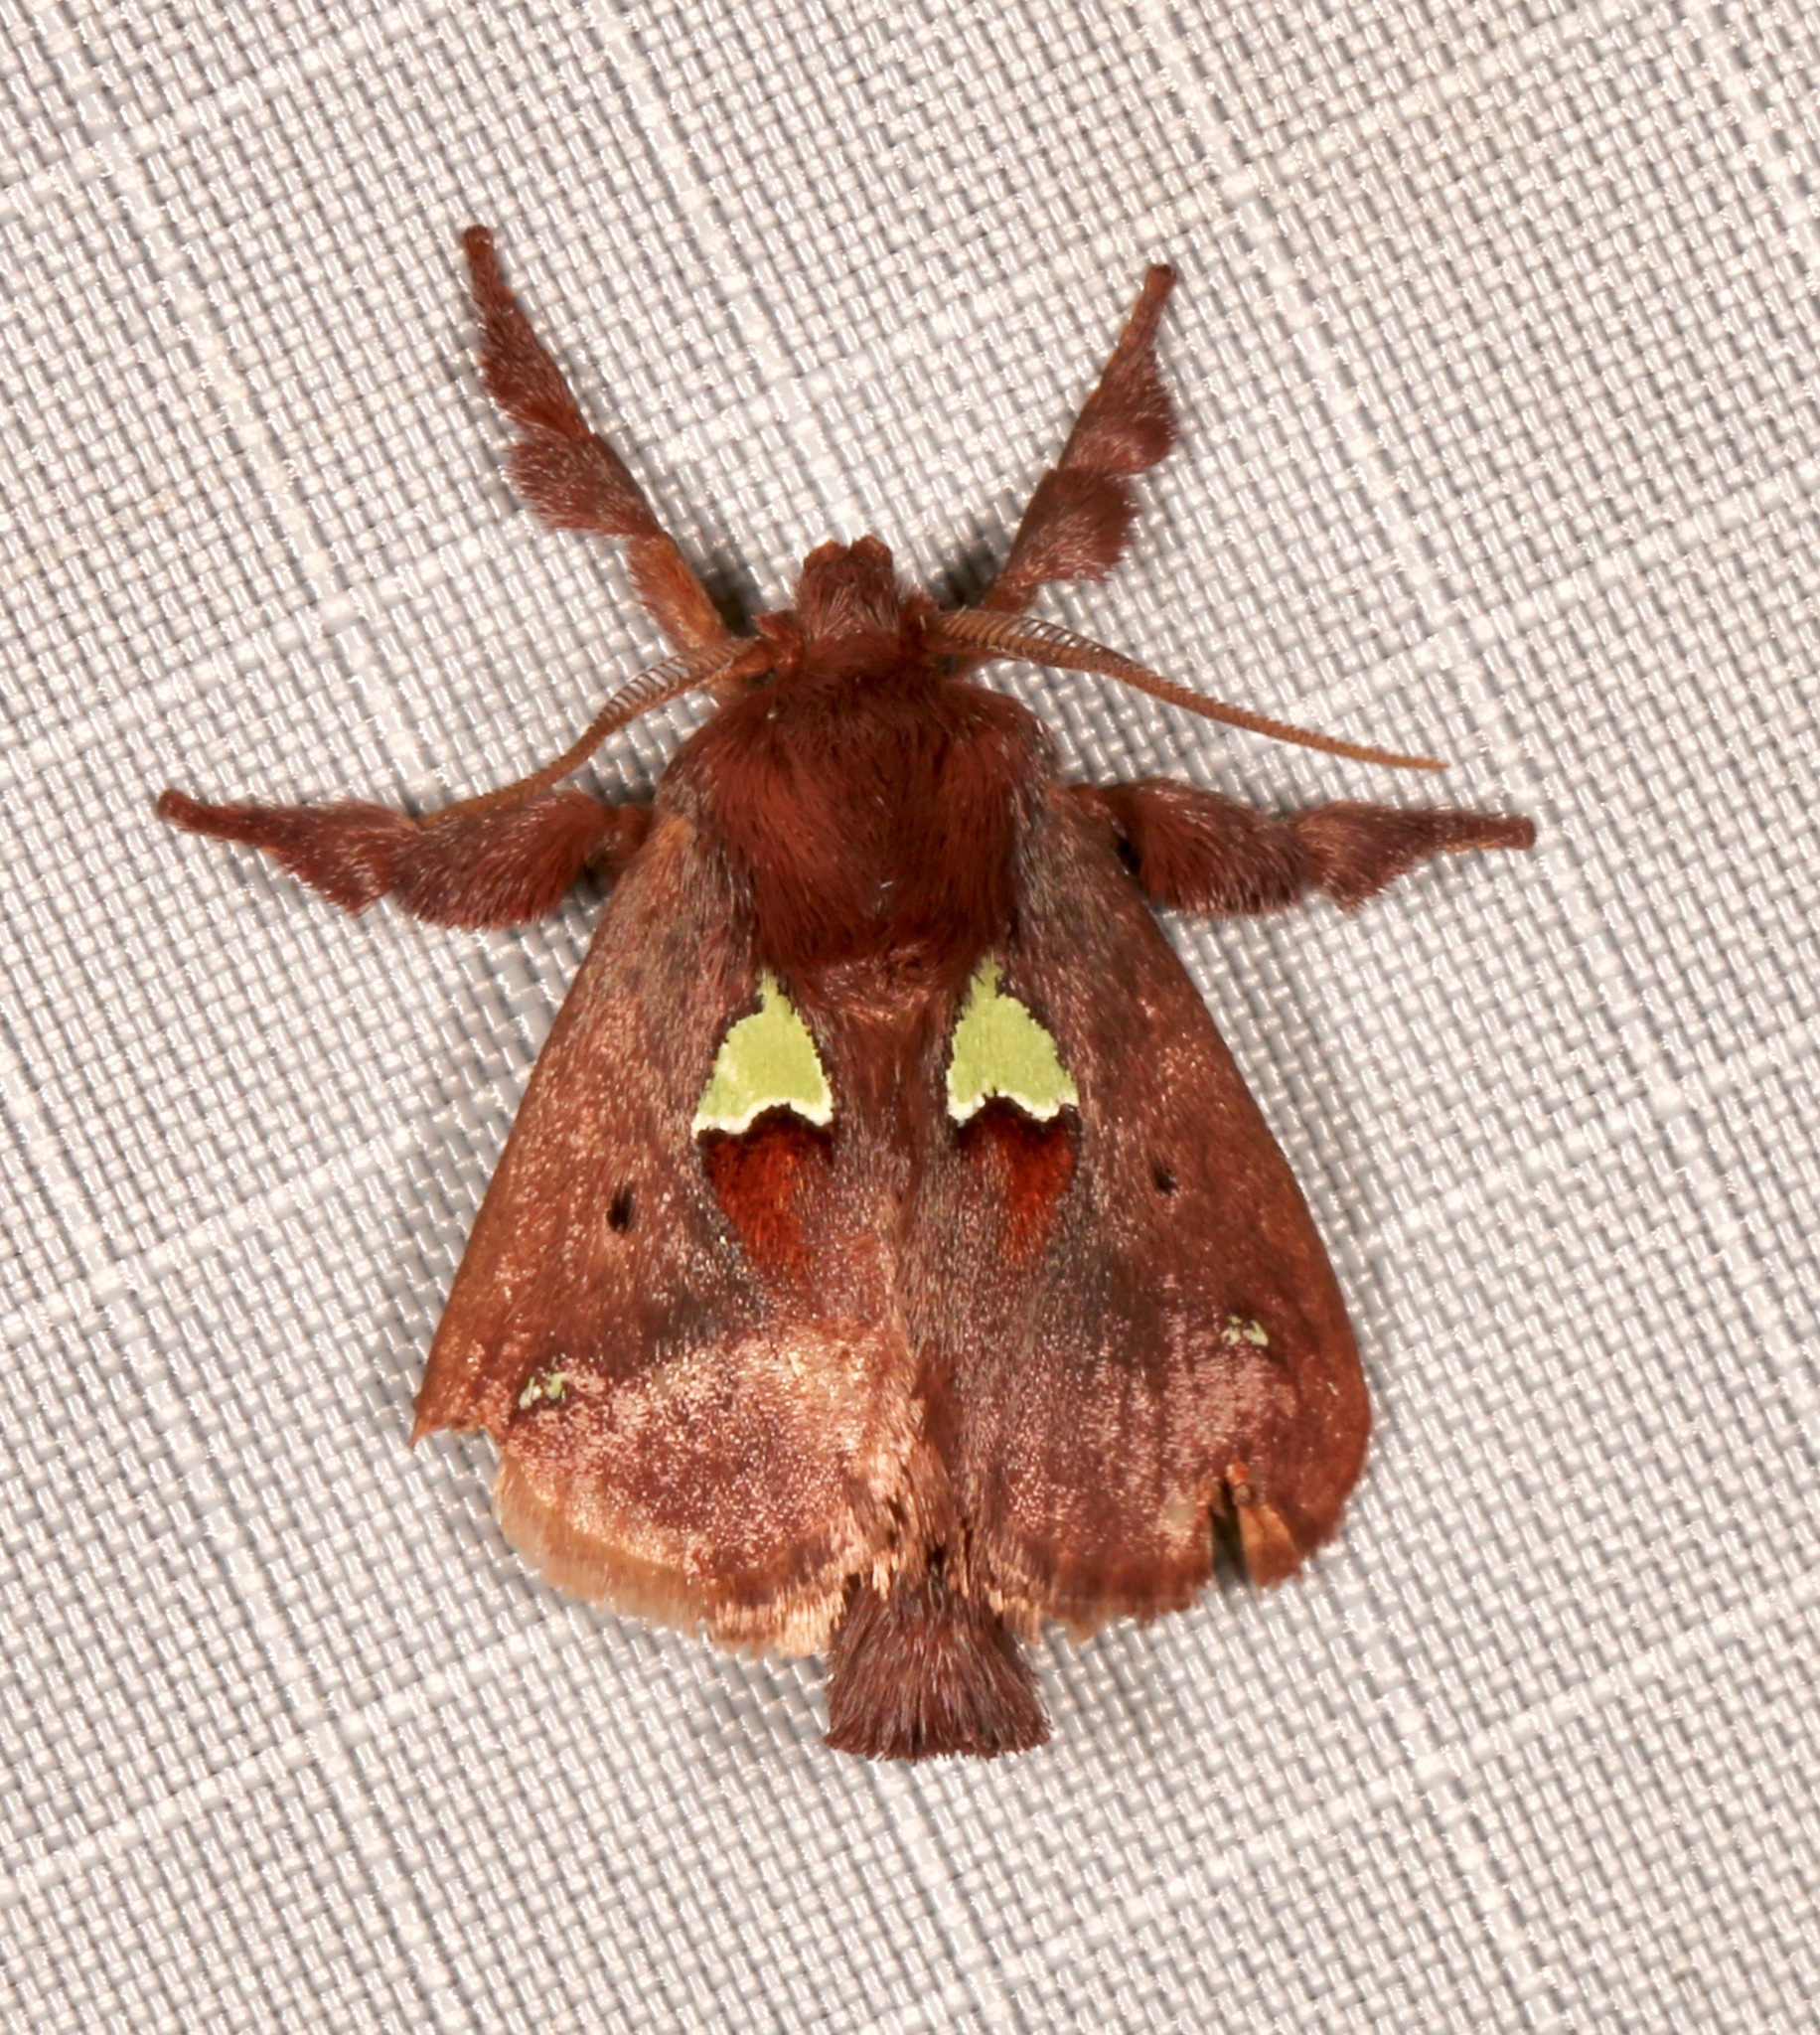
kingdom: Animalia
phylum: Arthropoda
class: Insecta
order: Lepidoptera
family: Limacodidae
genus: Euclea
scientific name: Euclea delphinii
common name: Spiny oak-slug moth
